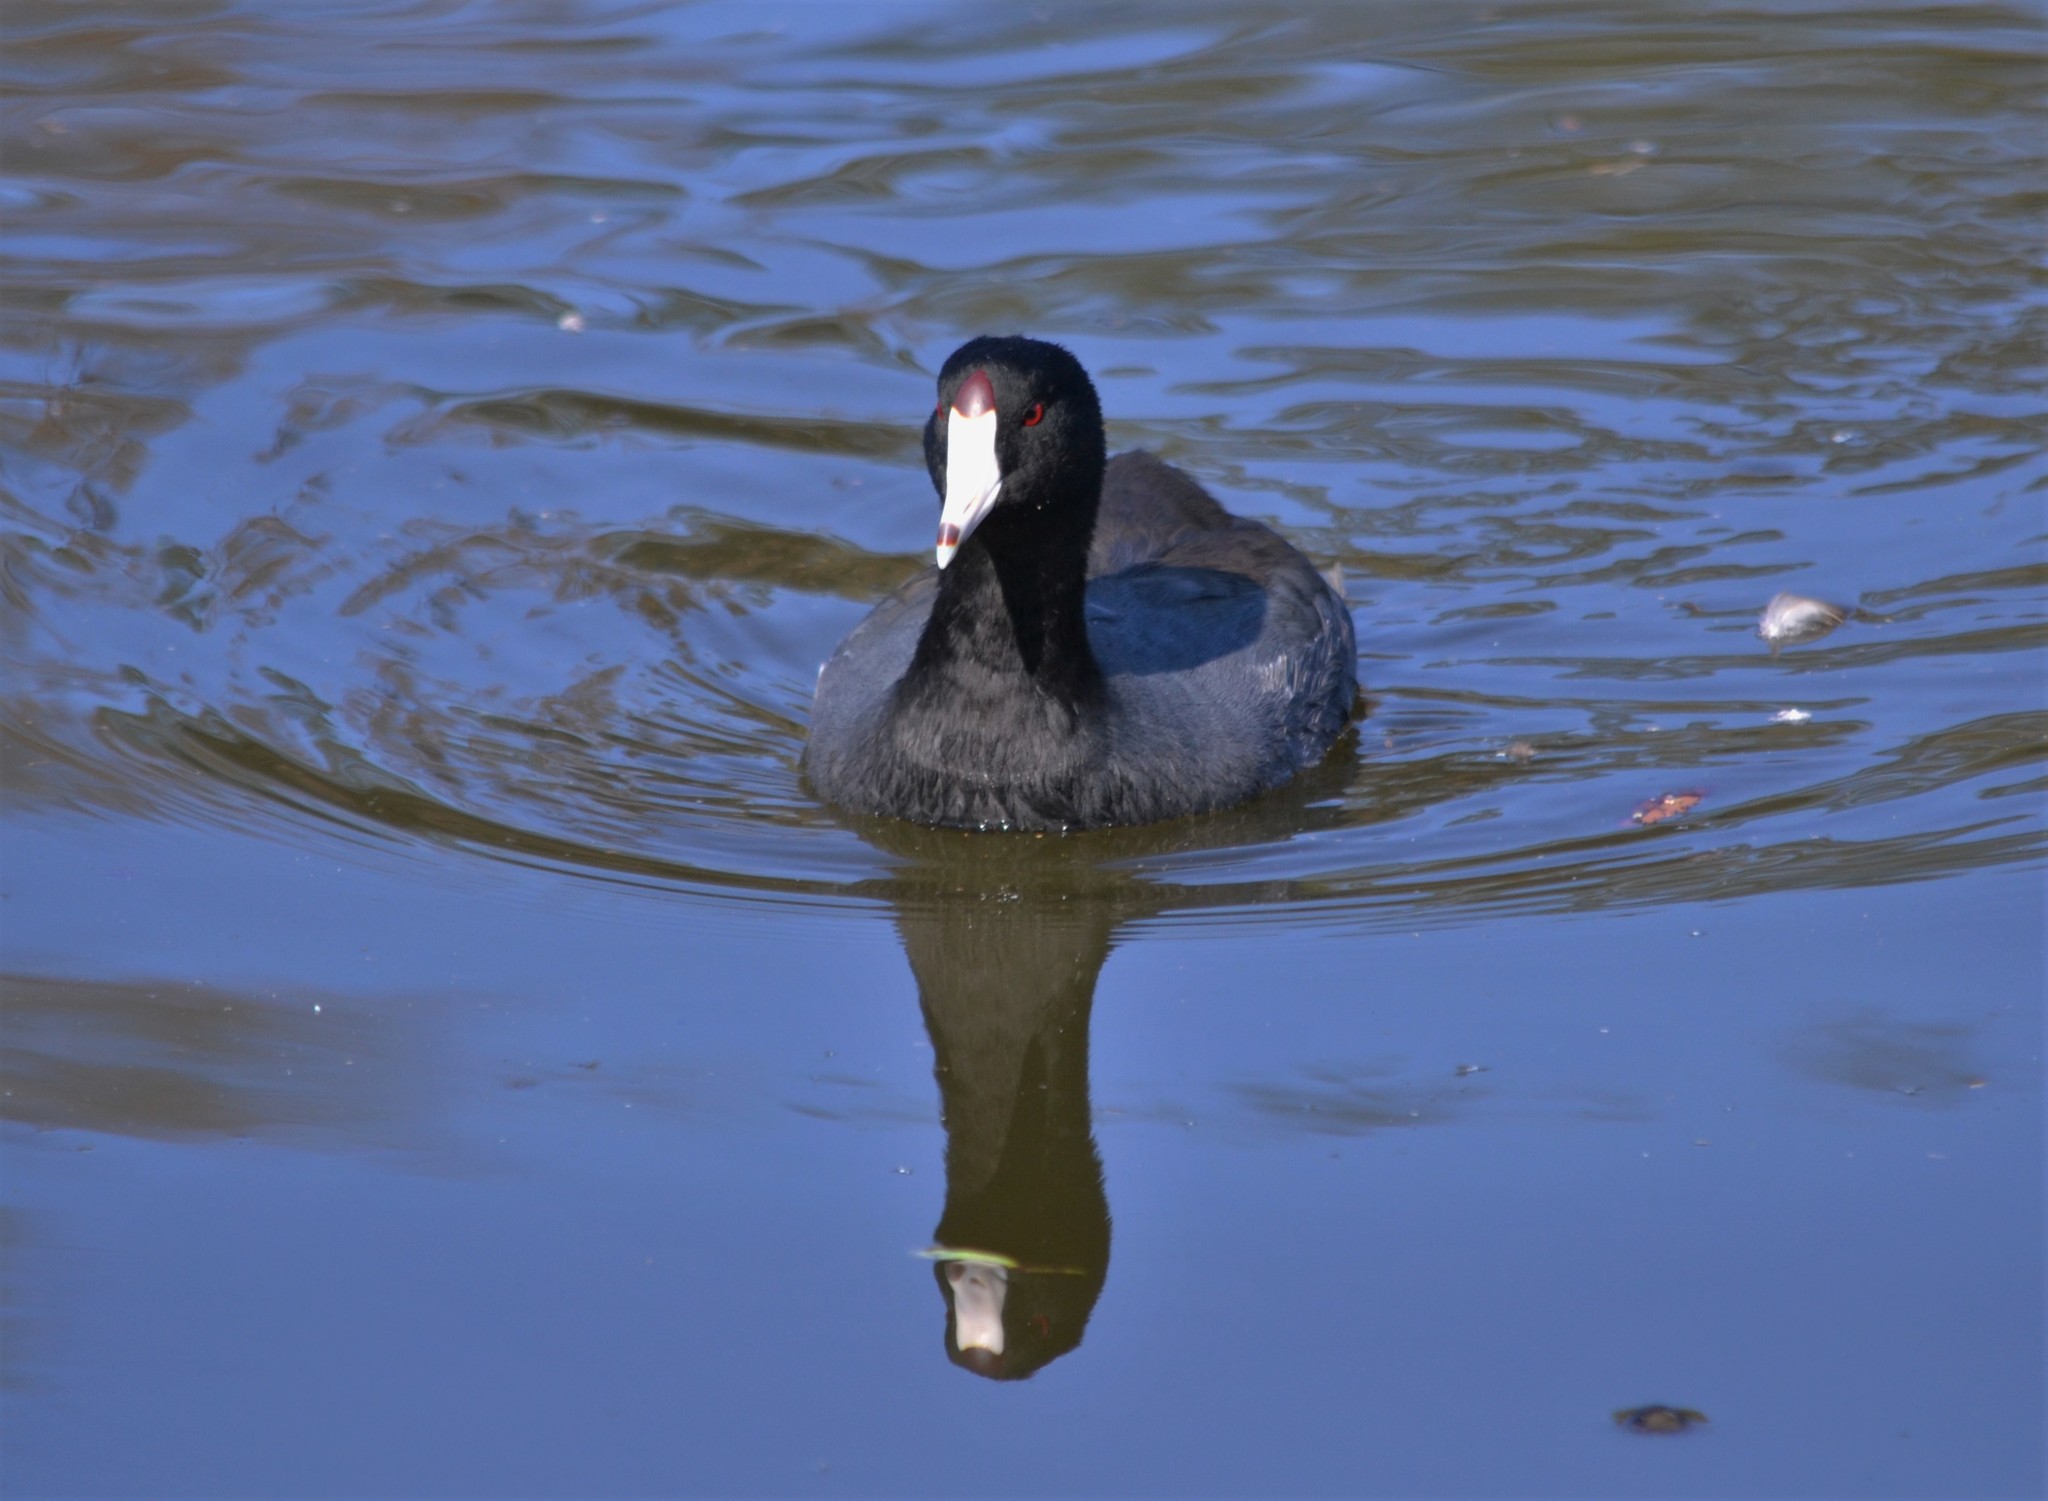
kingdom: Animalia
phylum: Chordata
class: Aves
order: Gruiformes
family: Rallidae
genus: Fulica
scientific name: Fulica americana
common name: American coot
